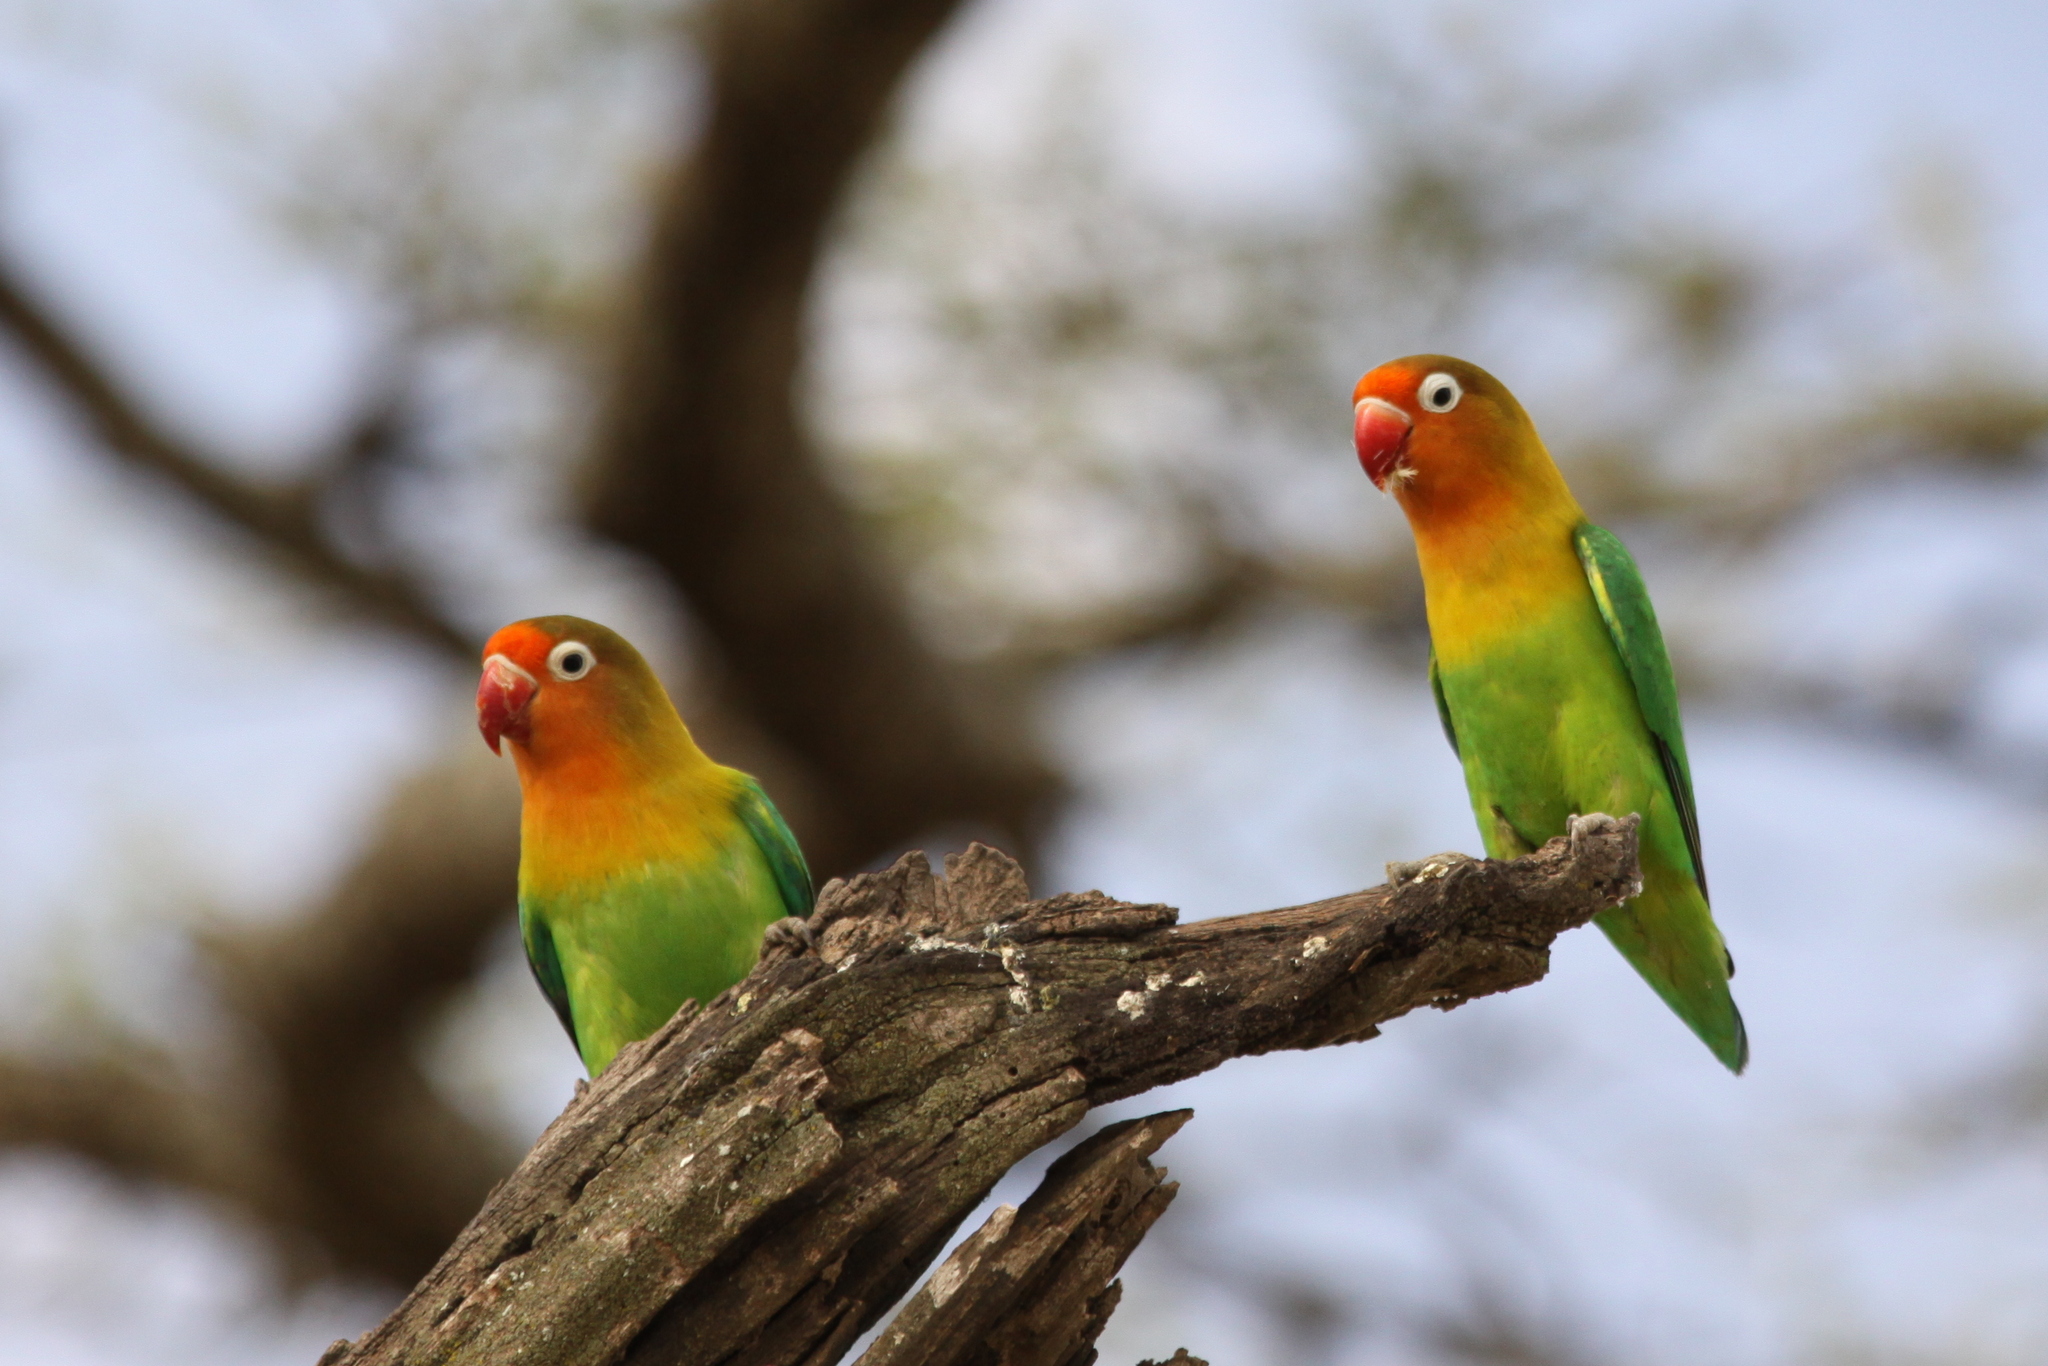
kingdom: Animalia
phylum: Chordata
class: Aves
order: Psittaciformes
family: Psittacidae
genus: Agapornis
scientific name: Agapornis fischeri
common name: Fischer's lovebird
